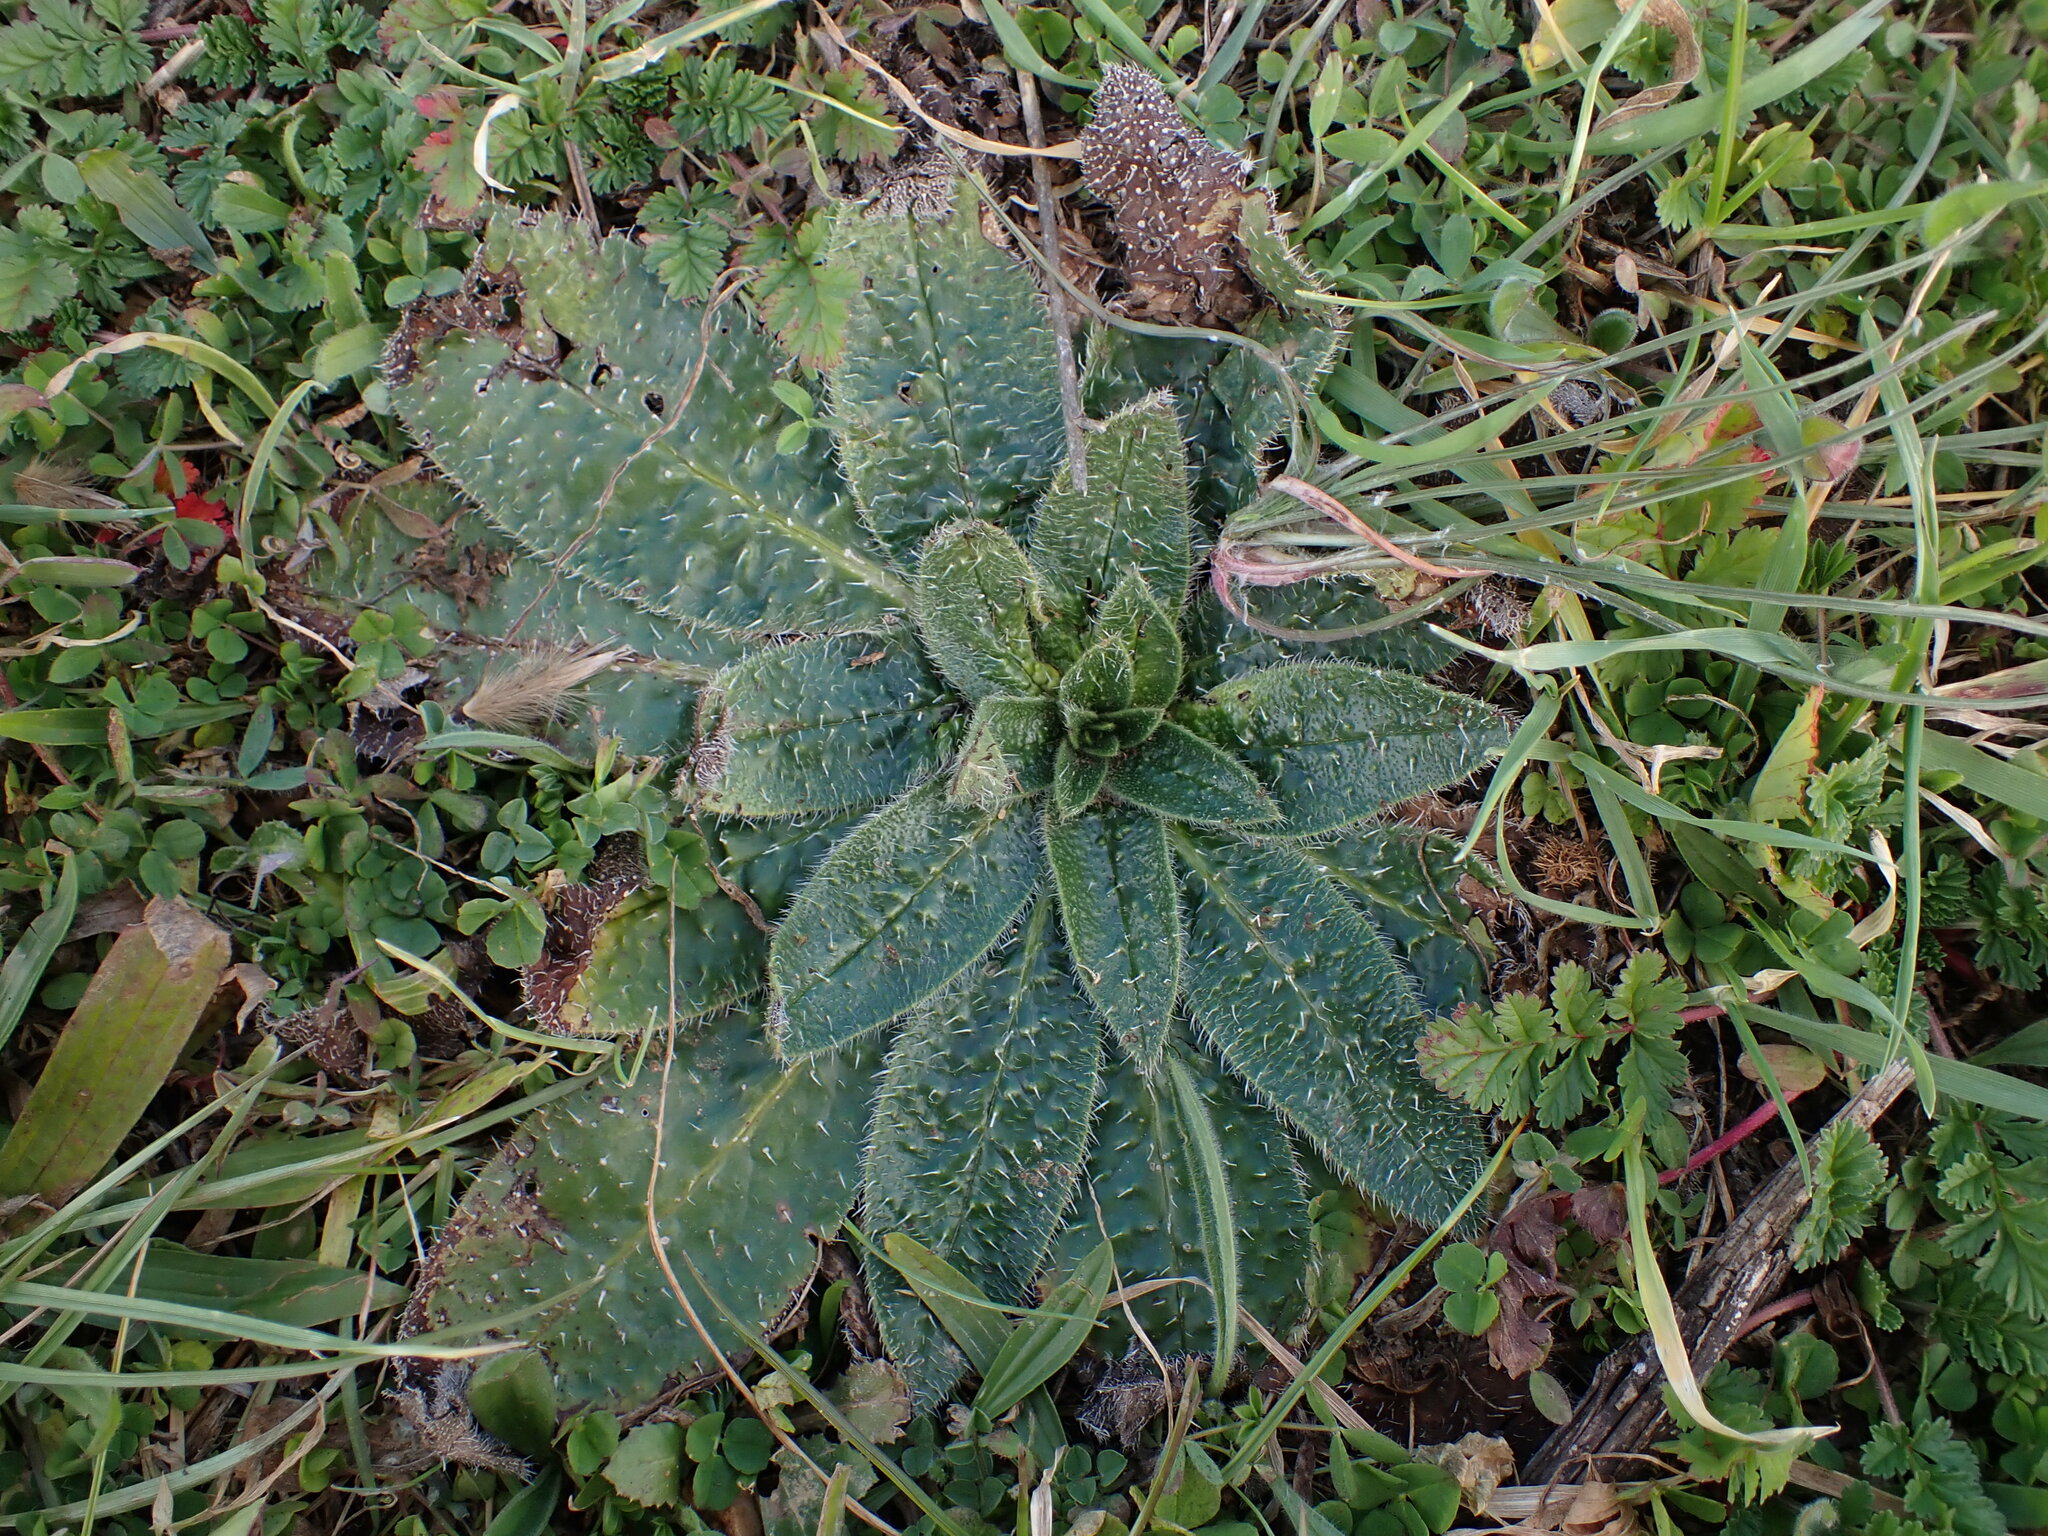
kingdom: Plantae
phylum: Tracheophyta
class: Magnoliopsida
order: Boraginales
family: Boraginaceae
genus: Echium
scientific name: Echium asperrimum
